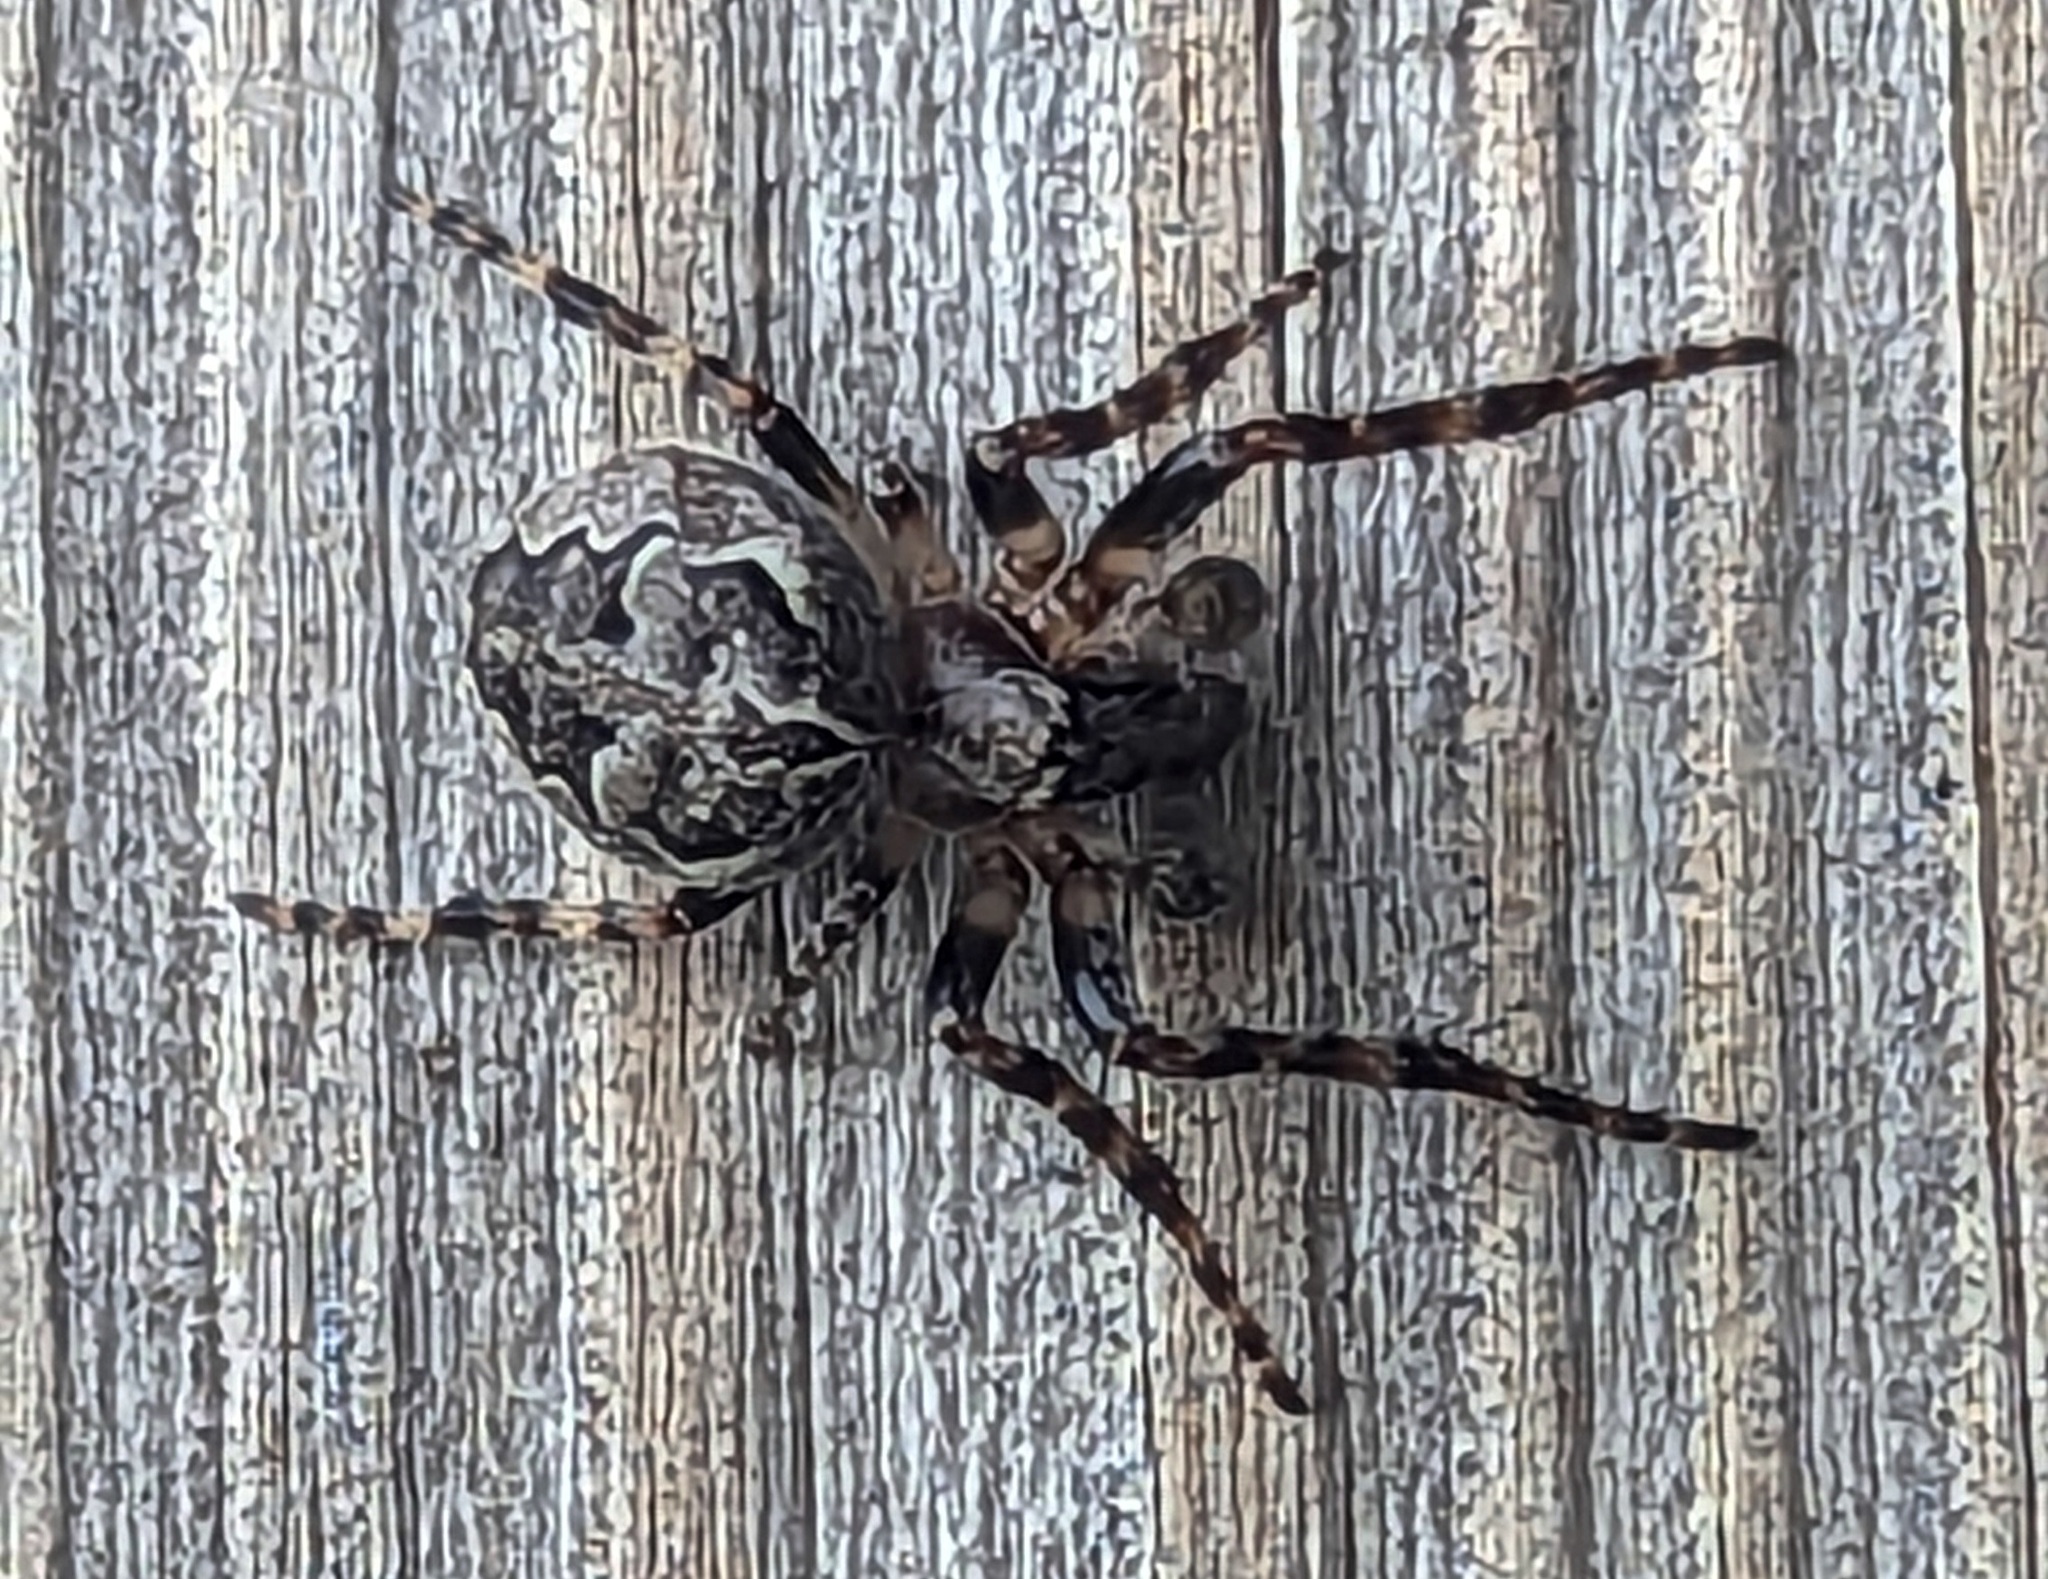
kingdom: Animalia
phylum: Arthropoda
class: Arachnida
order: Araneae
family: Araneidae
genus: Larinioides
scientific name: Larinioides sclopetarius
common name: Bridge orbweaver
